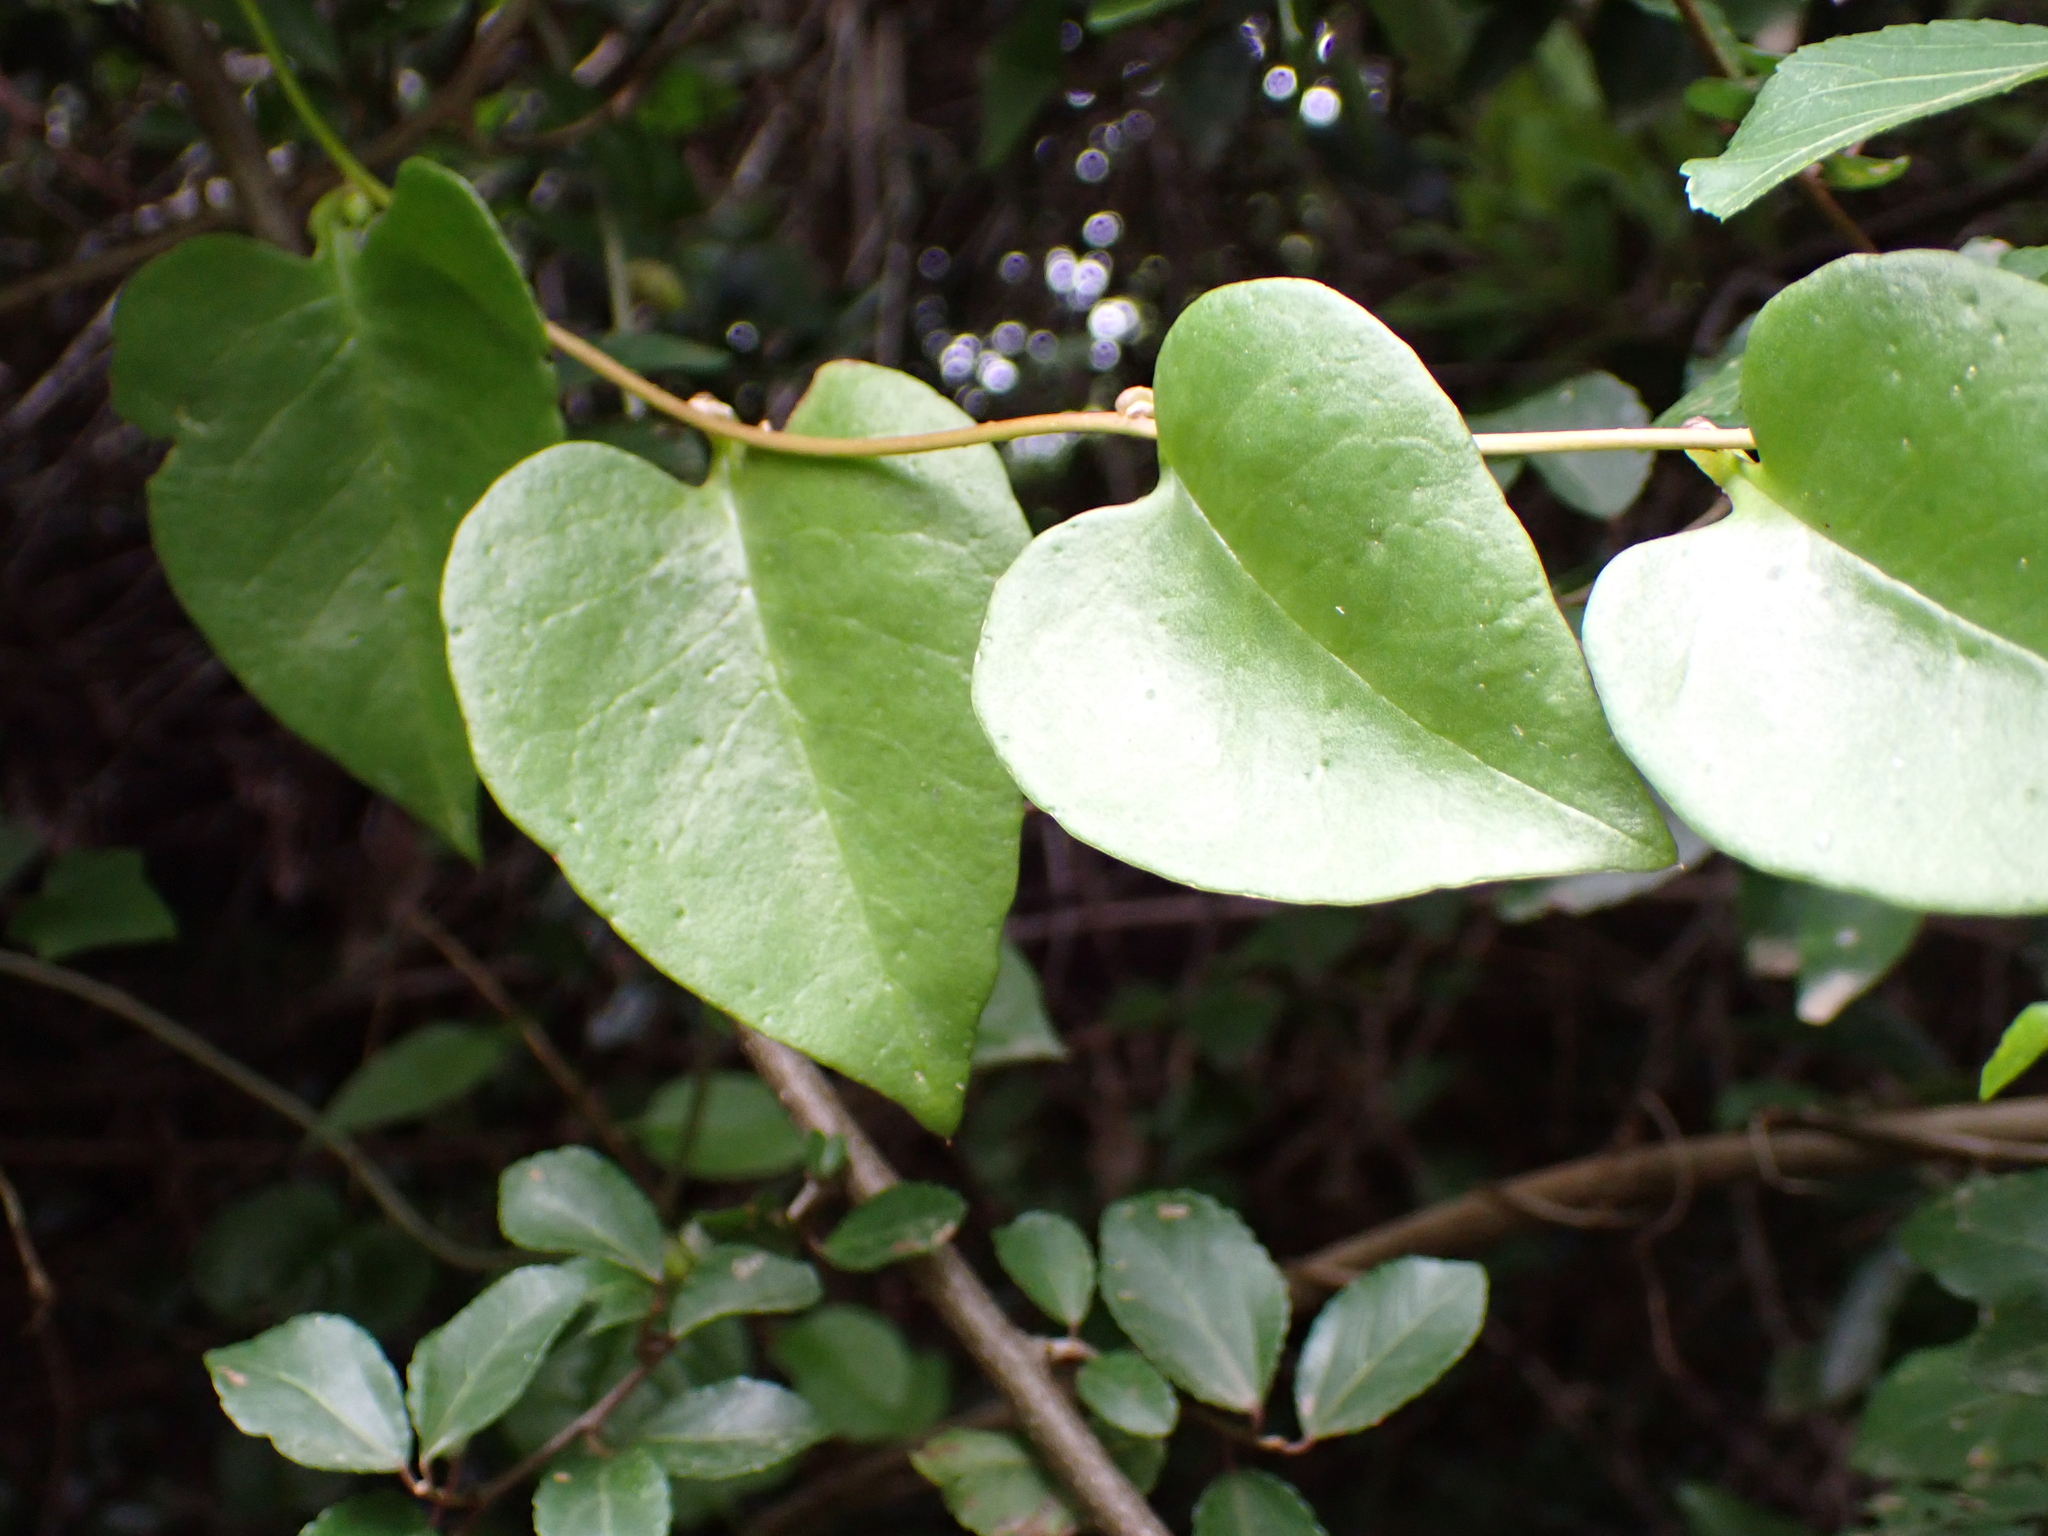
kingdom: Plantae
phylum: Tracheophyta
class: Magnoliopsida
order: Caryophyllales
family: Basellaceae
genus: Anredera
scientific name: Anredera cordifolia
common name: Heartleaf madeiravine
